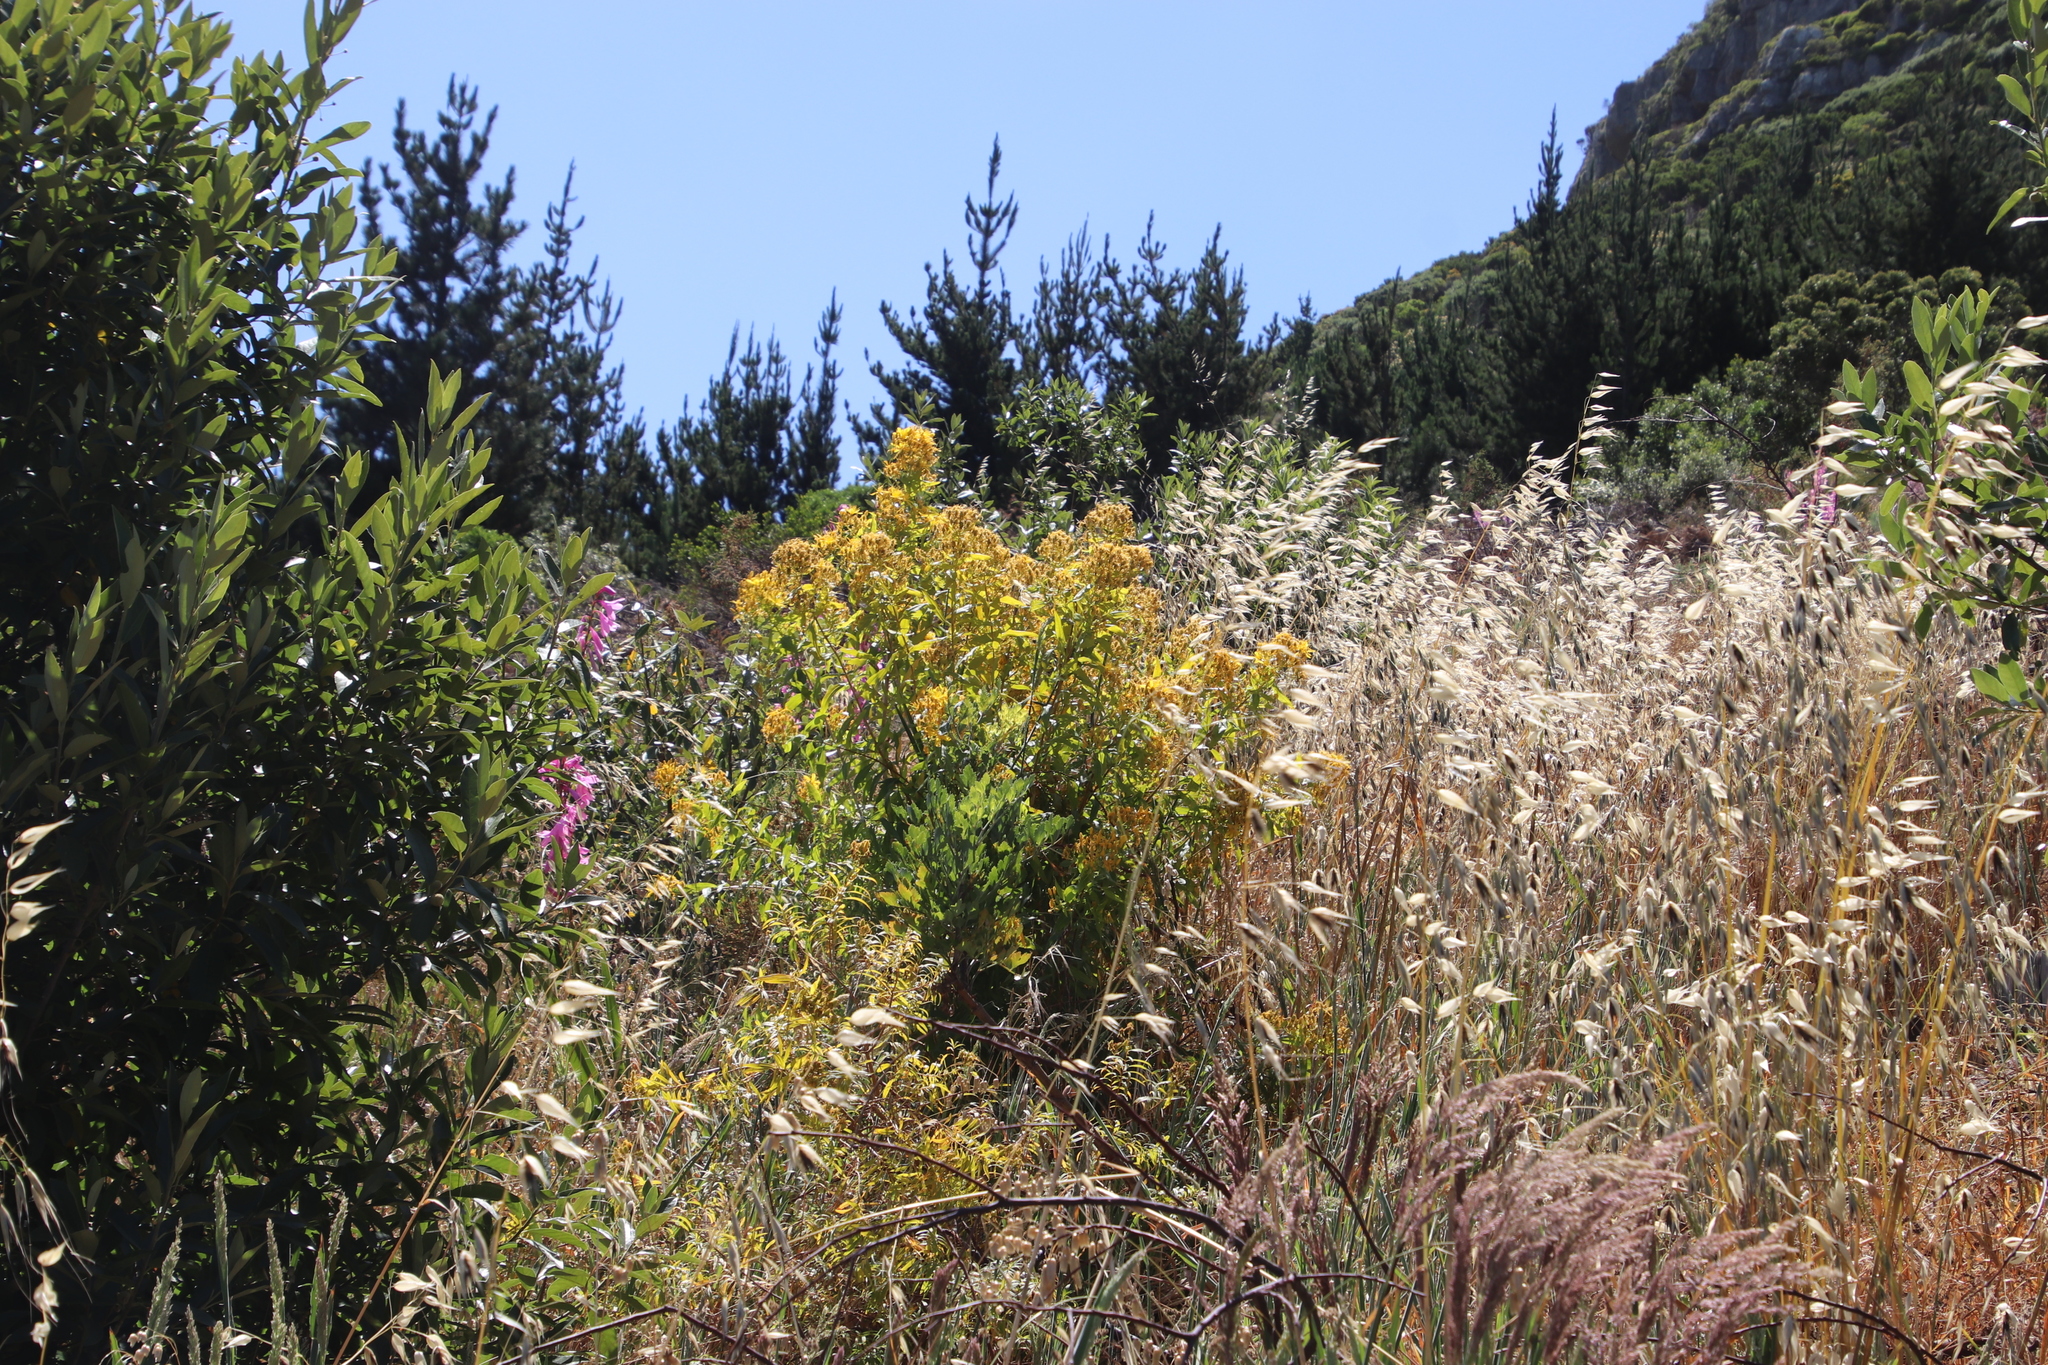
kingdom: Plantae
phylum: Tracheophyta
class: Magnoliopsida
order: Malpighiales
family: Hypericaceae
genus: Hypericum
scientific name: Hypericum canariense
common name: Canary island st. johnswort
